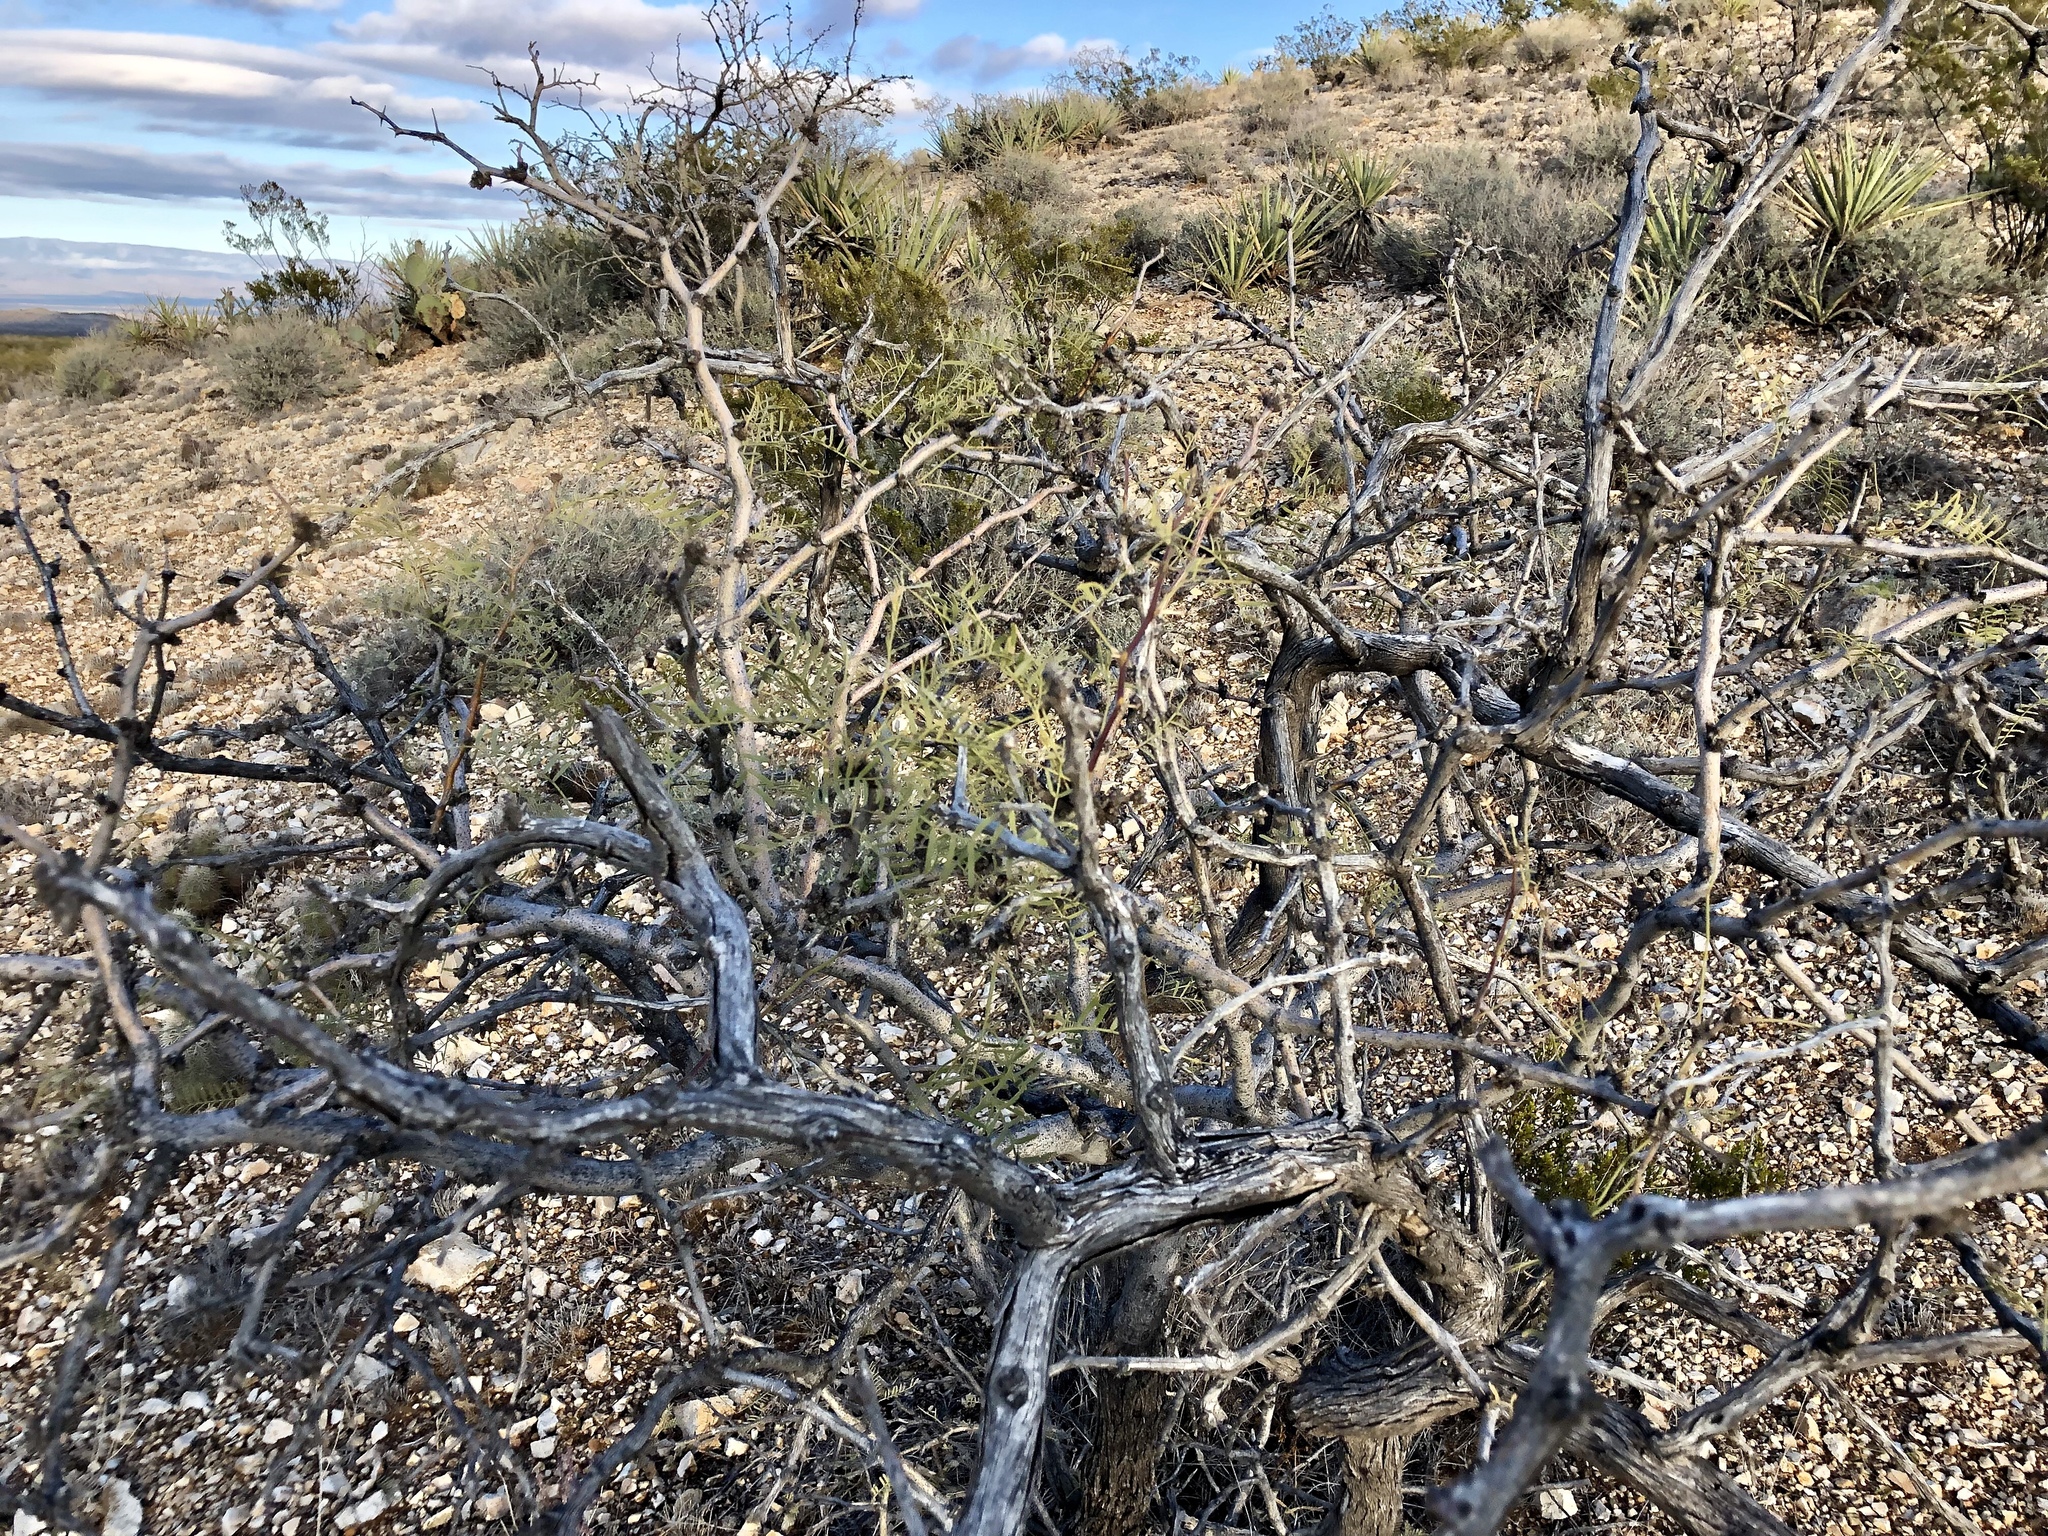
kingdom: Plantae
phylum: Tracheophyta
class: Magnoliopsida
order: Fabales
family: Fabaceae
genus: Prosopis
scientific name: Prosopis glandulosa
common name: Honey mesquite
